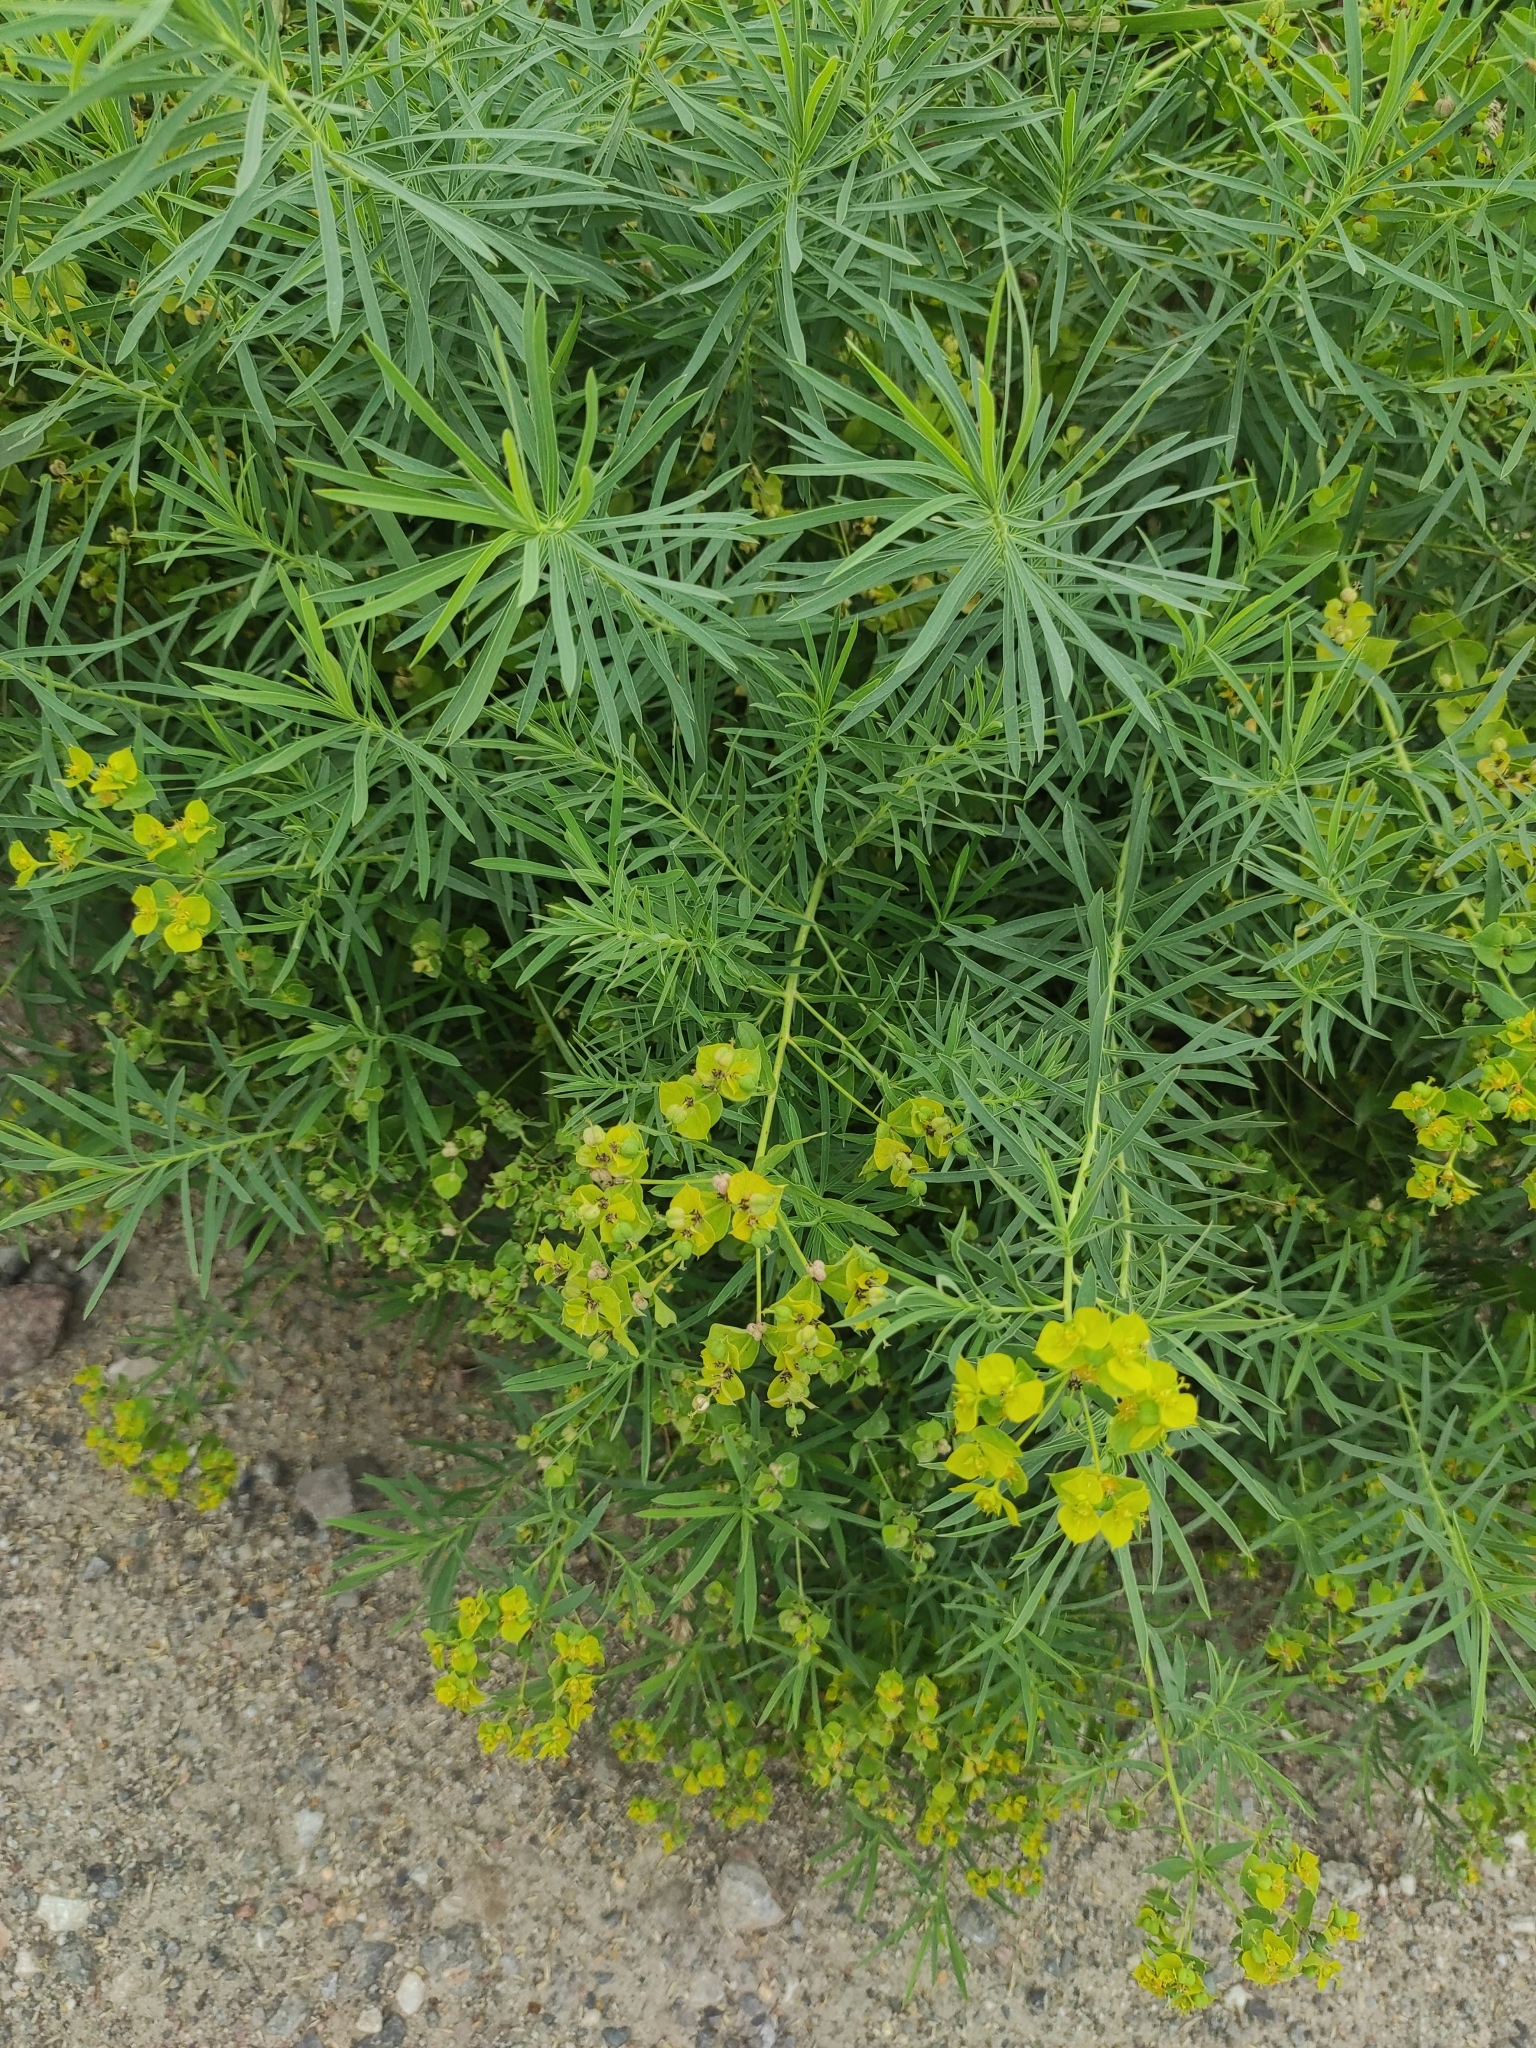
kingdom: Plantae
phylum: Tracheophyta
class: Magnoliopsida
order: Malpighiales
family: Euphorbiaceae
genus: Euphorbia
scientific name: Euphorbia saratoi
